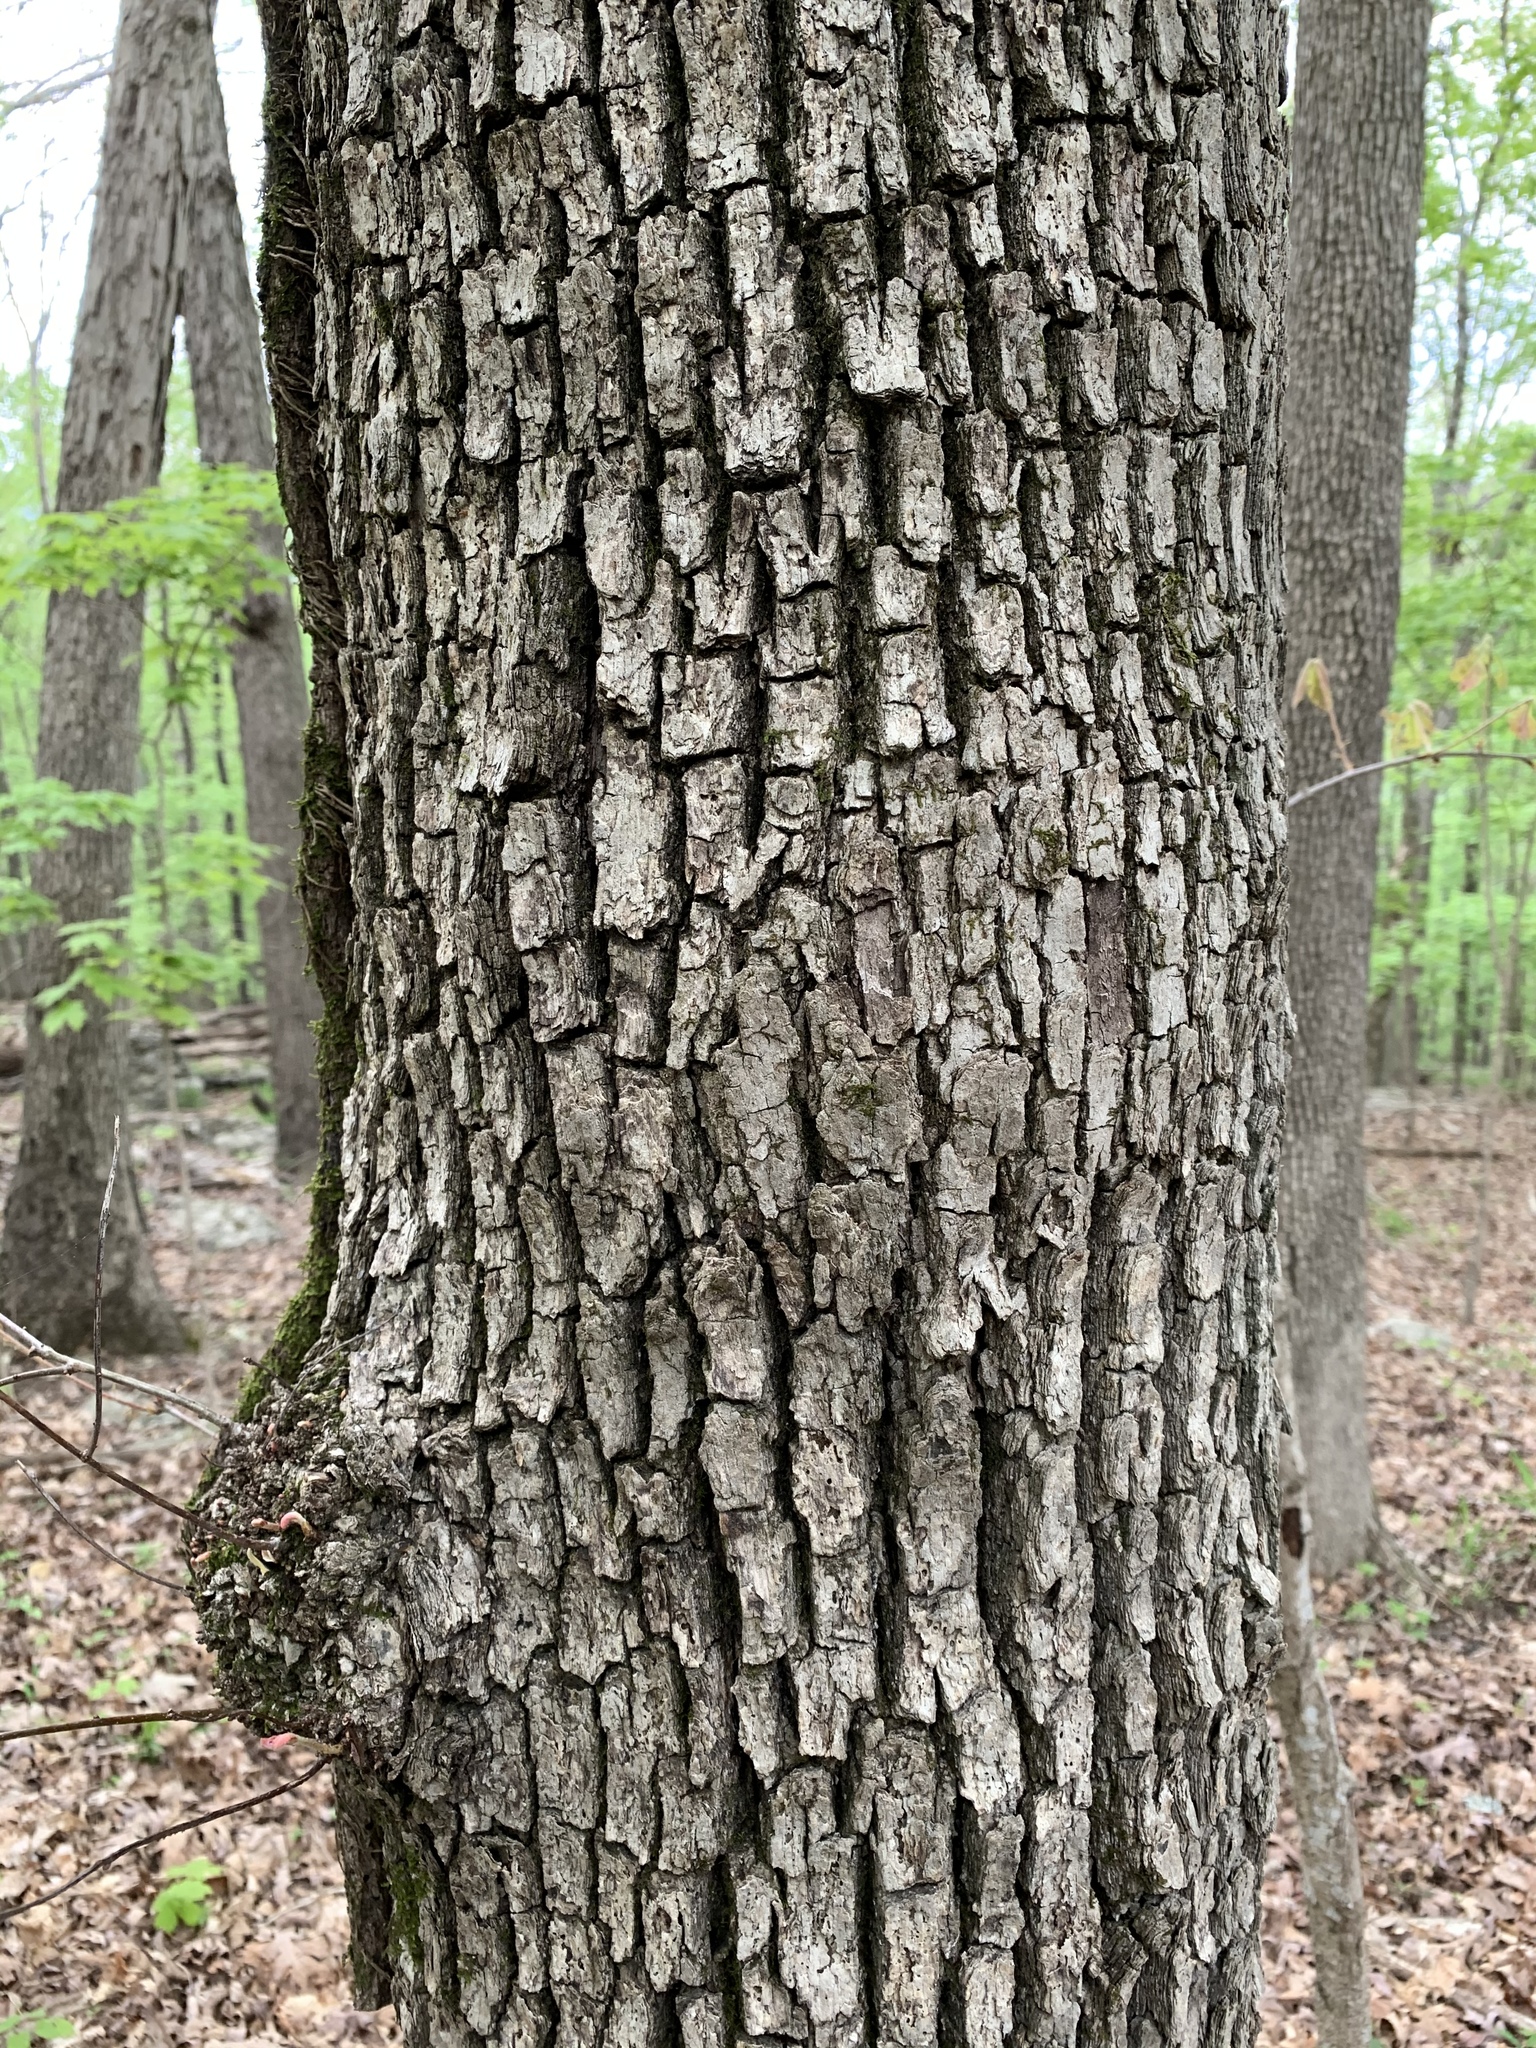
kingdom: Animalia
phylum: Arthropoda
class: Insecta
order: Hymenoptera
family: Cynipidae
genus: Callirhytis
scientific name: Callirhytis
